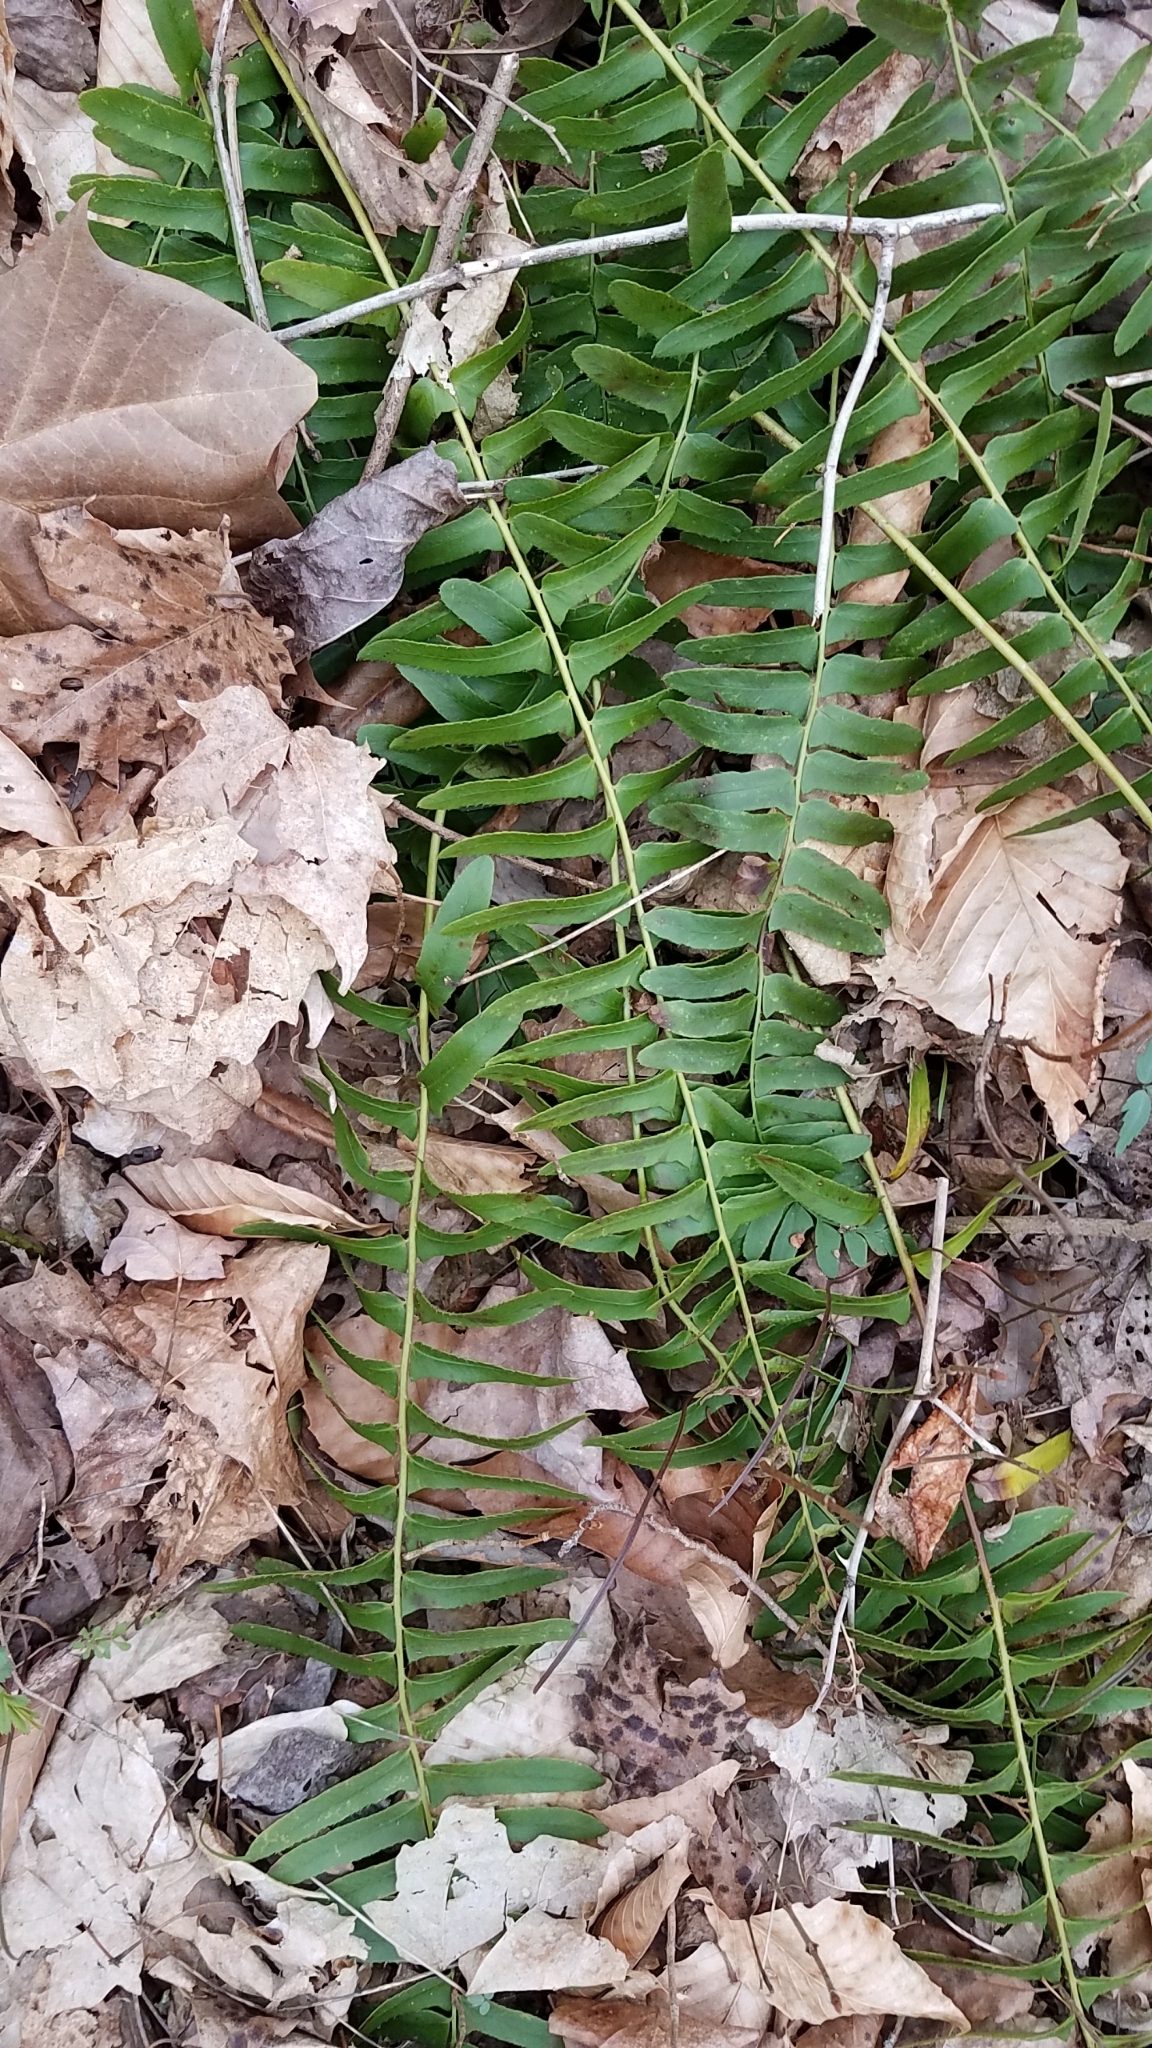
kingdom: Plantae
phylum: Tracheophyta
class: Polypodiopsida
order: Polypodiales
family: Dryopteridaceae
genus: Polystichum
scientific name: Polystichum acrostichoides
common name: Christmas fern
